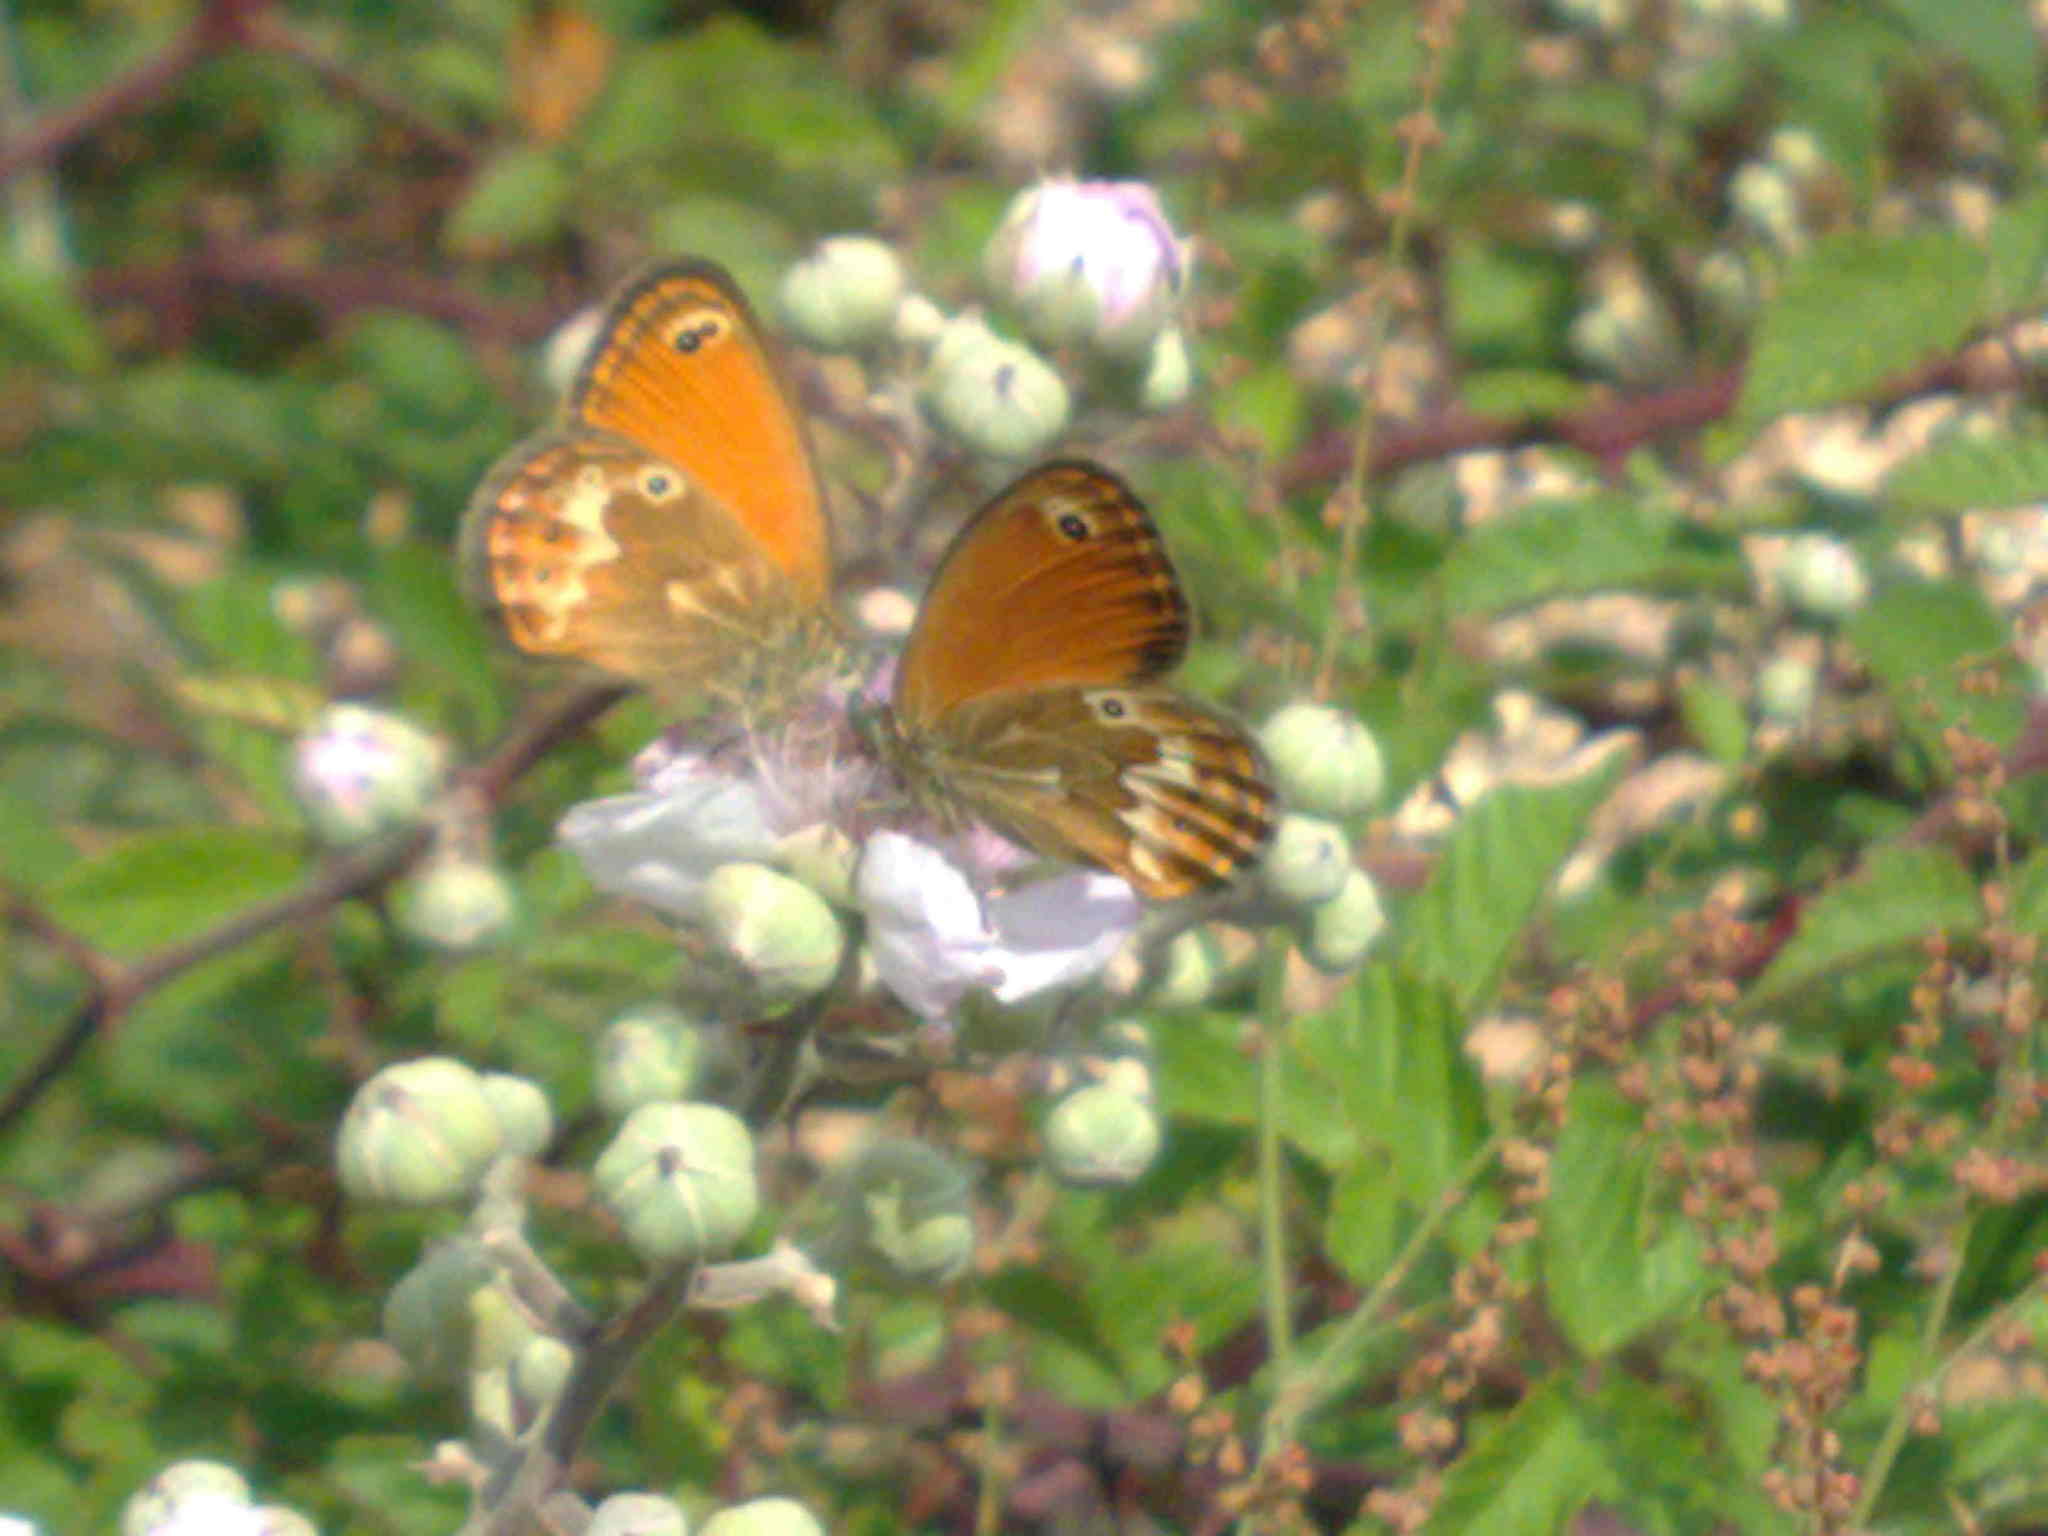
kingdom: Animalia
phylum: Arthropoda
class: Insecta
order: Lepidoptera
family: Nymphalidae
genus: Coenonympha
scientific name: Coenonympha corinna
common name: Corsican heath
